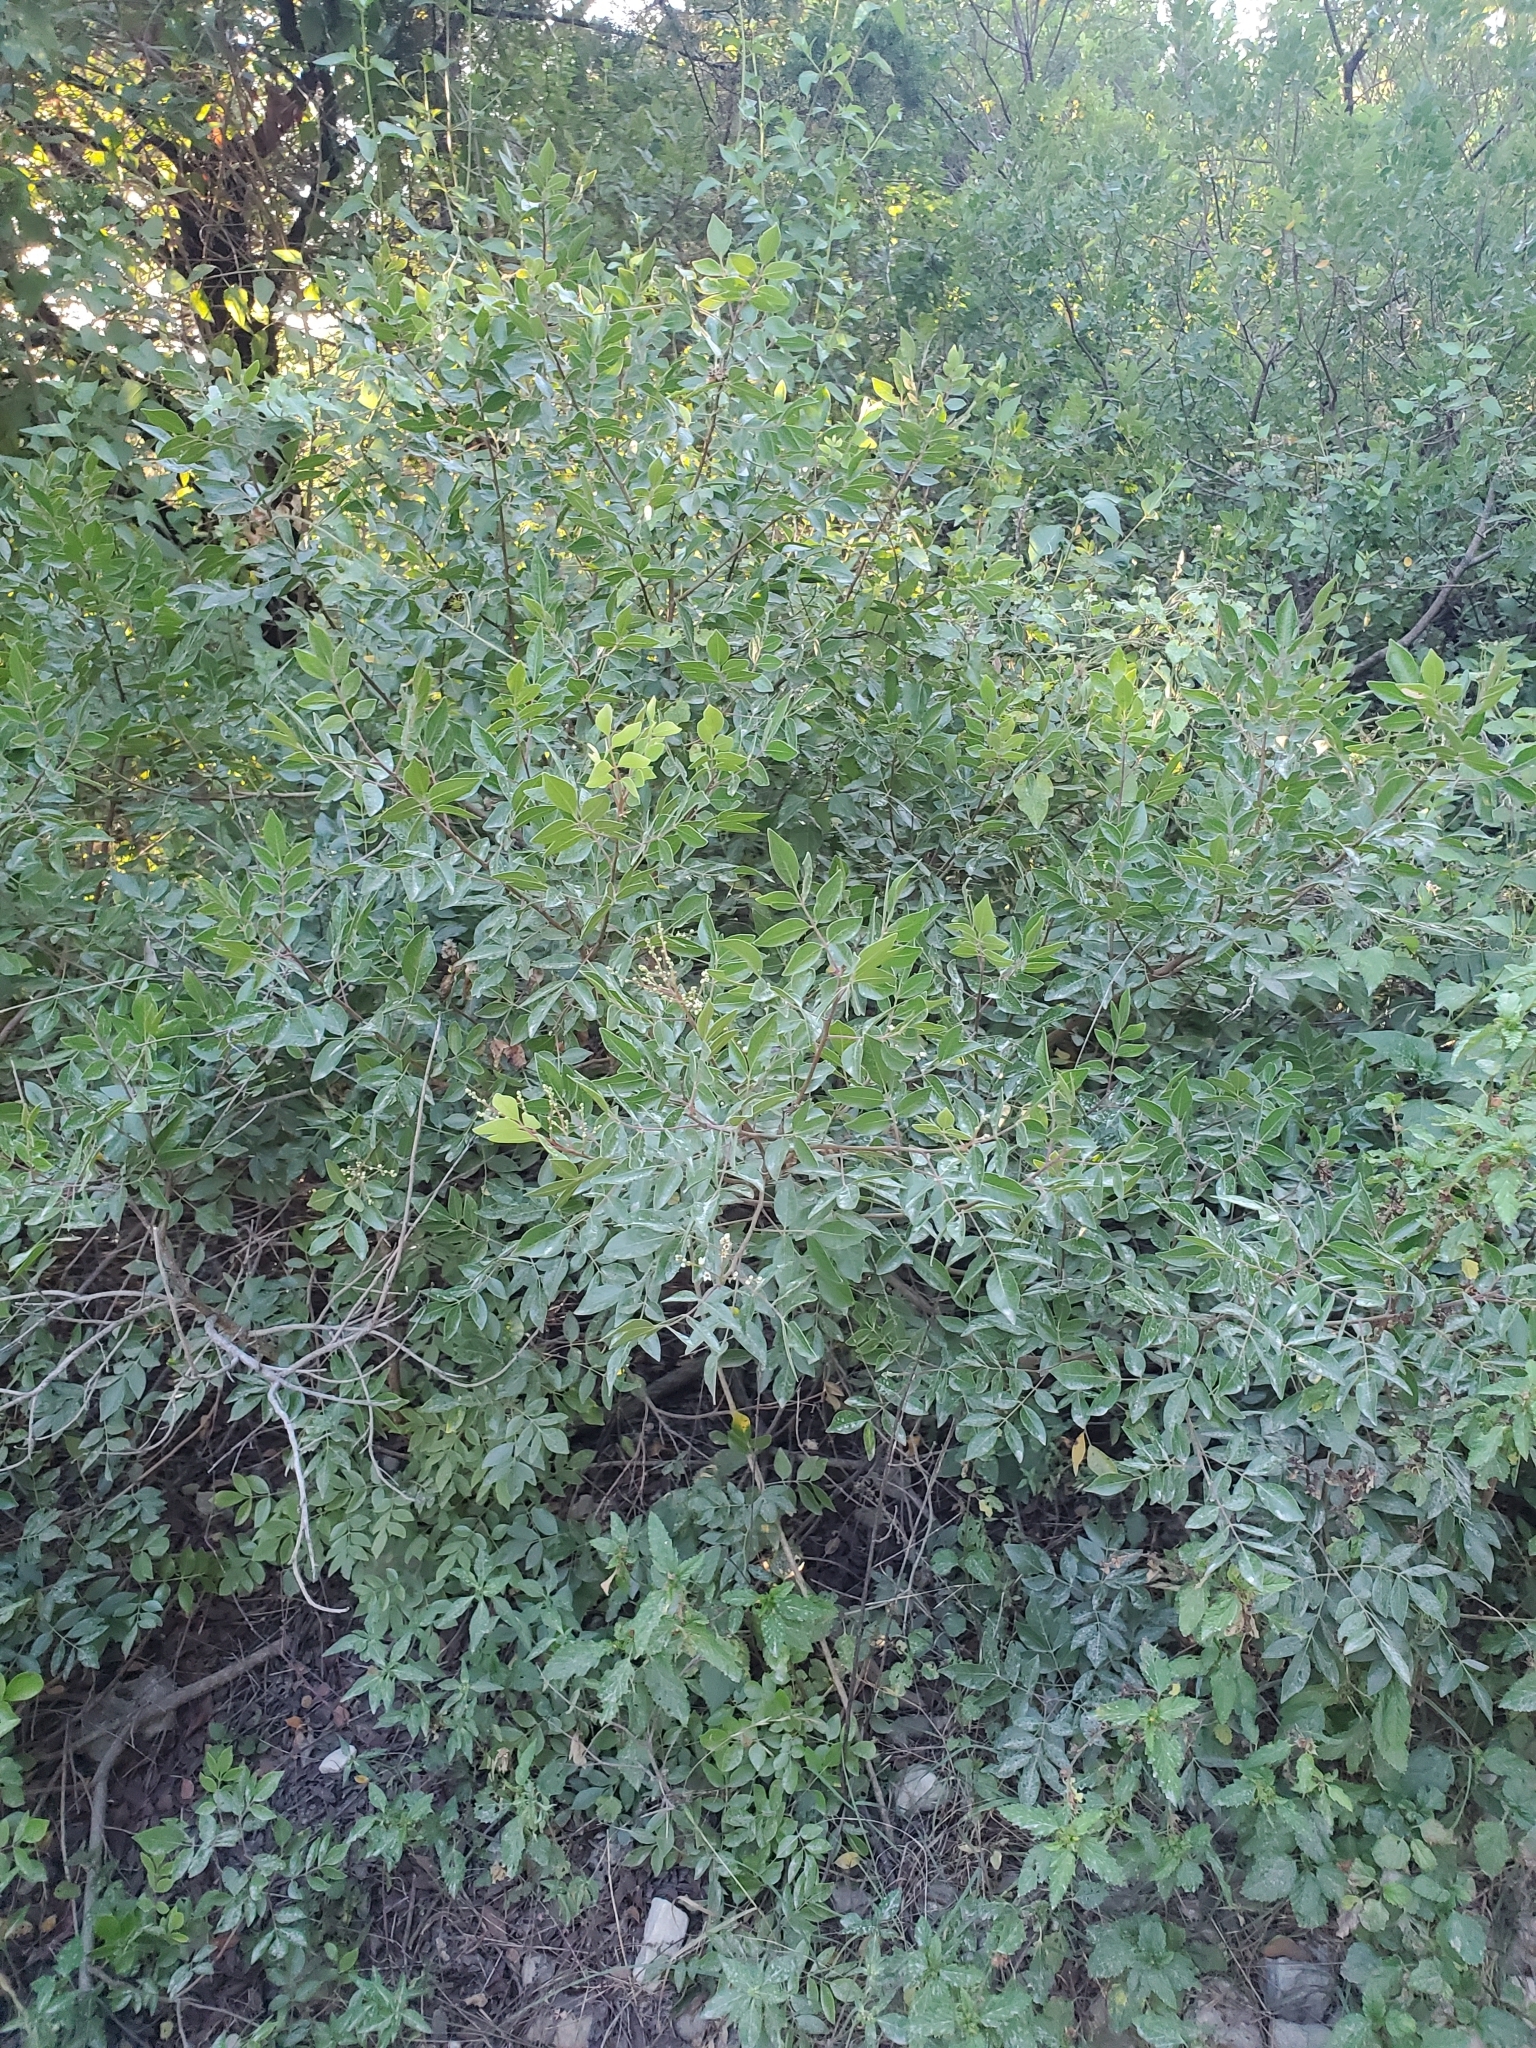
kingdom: Plantae
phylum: Tracheophyta
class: Magnoliopsida
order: Sapindales
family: Anacardiaceae
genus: Rhus
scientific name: Rhus virens
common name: Evergreen sumac
